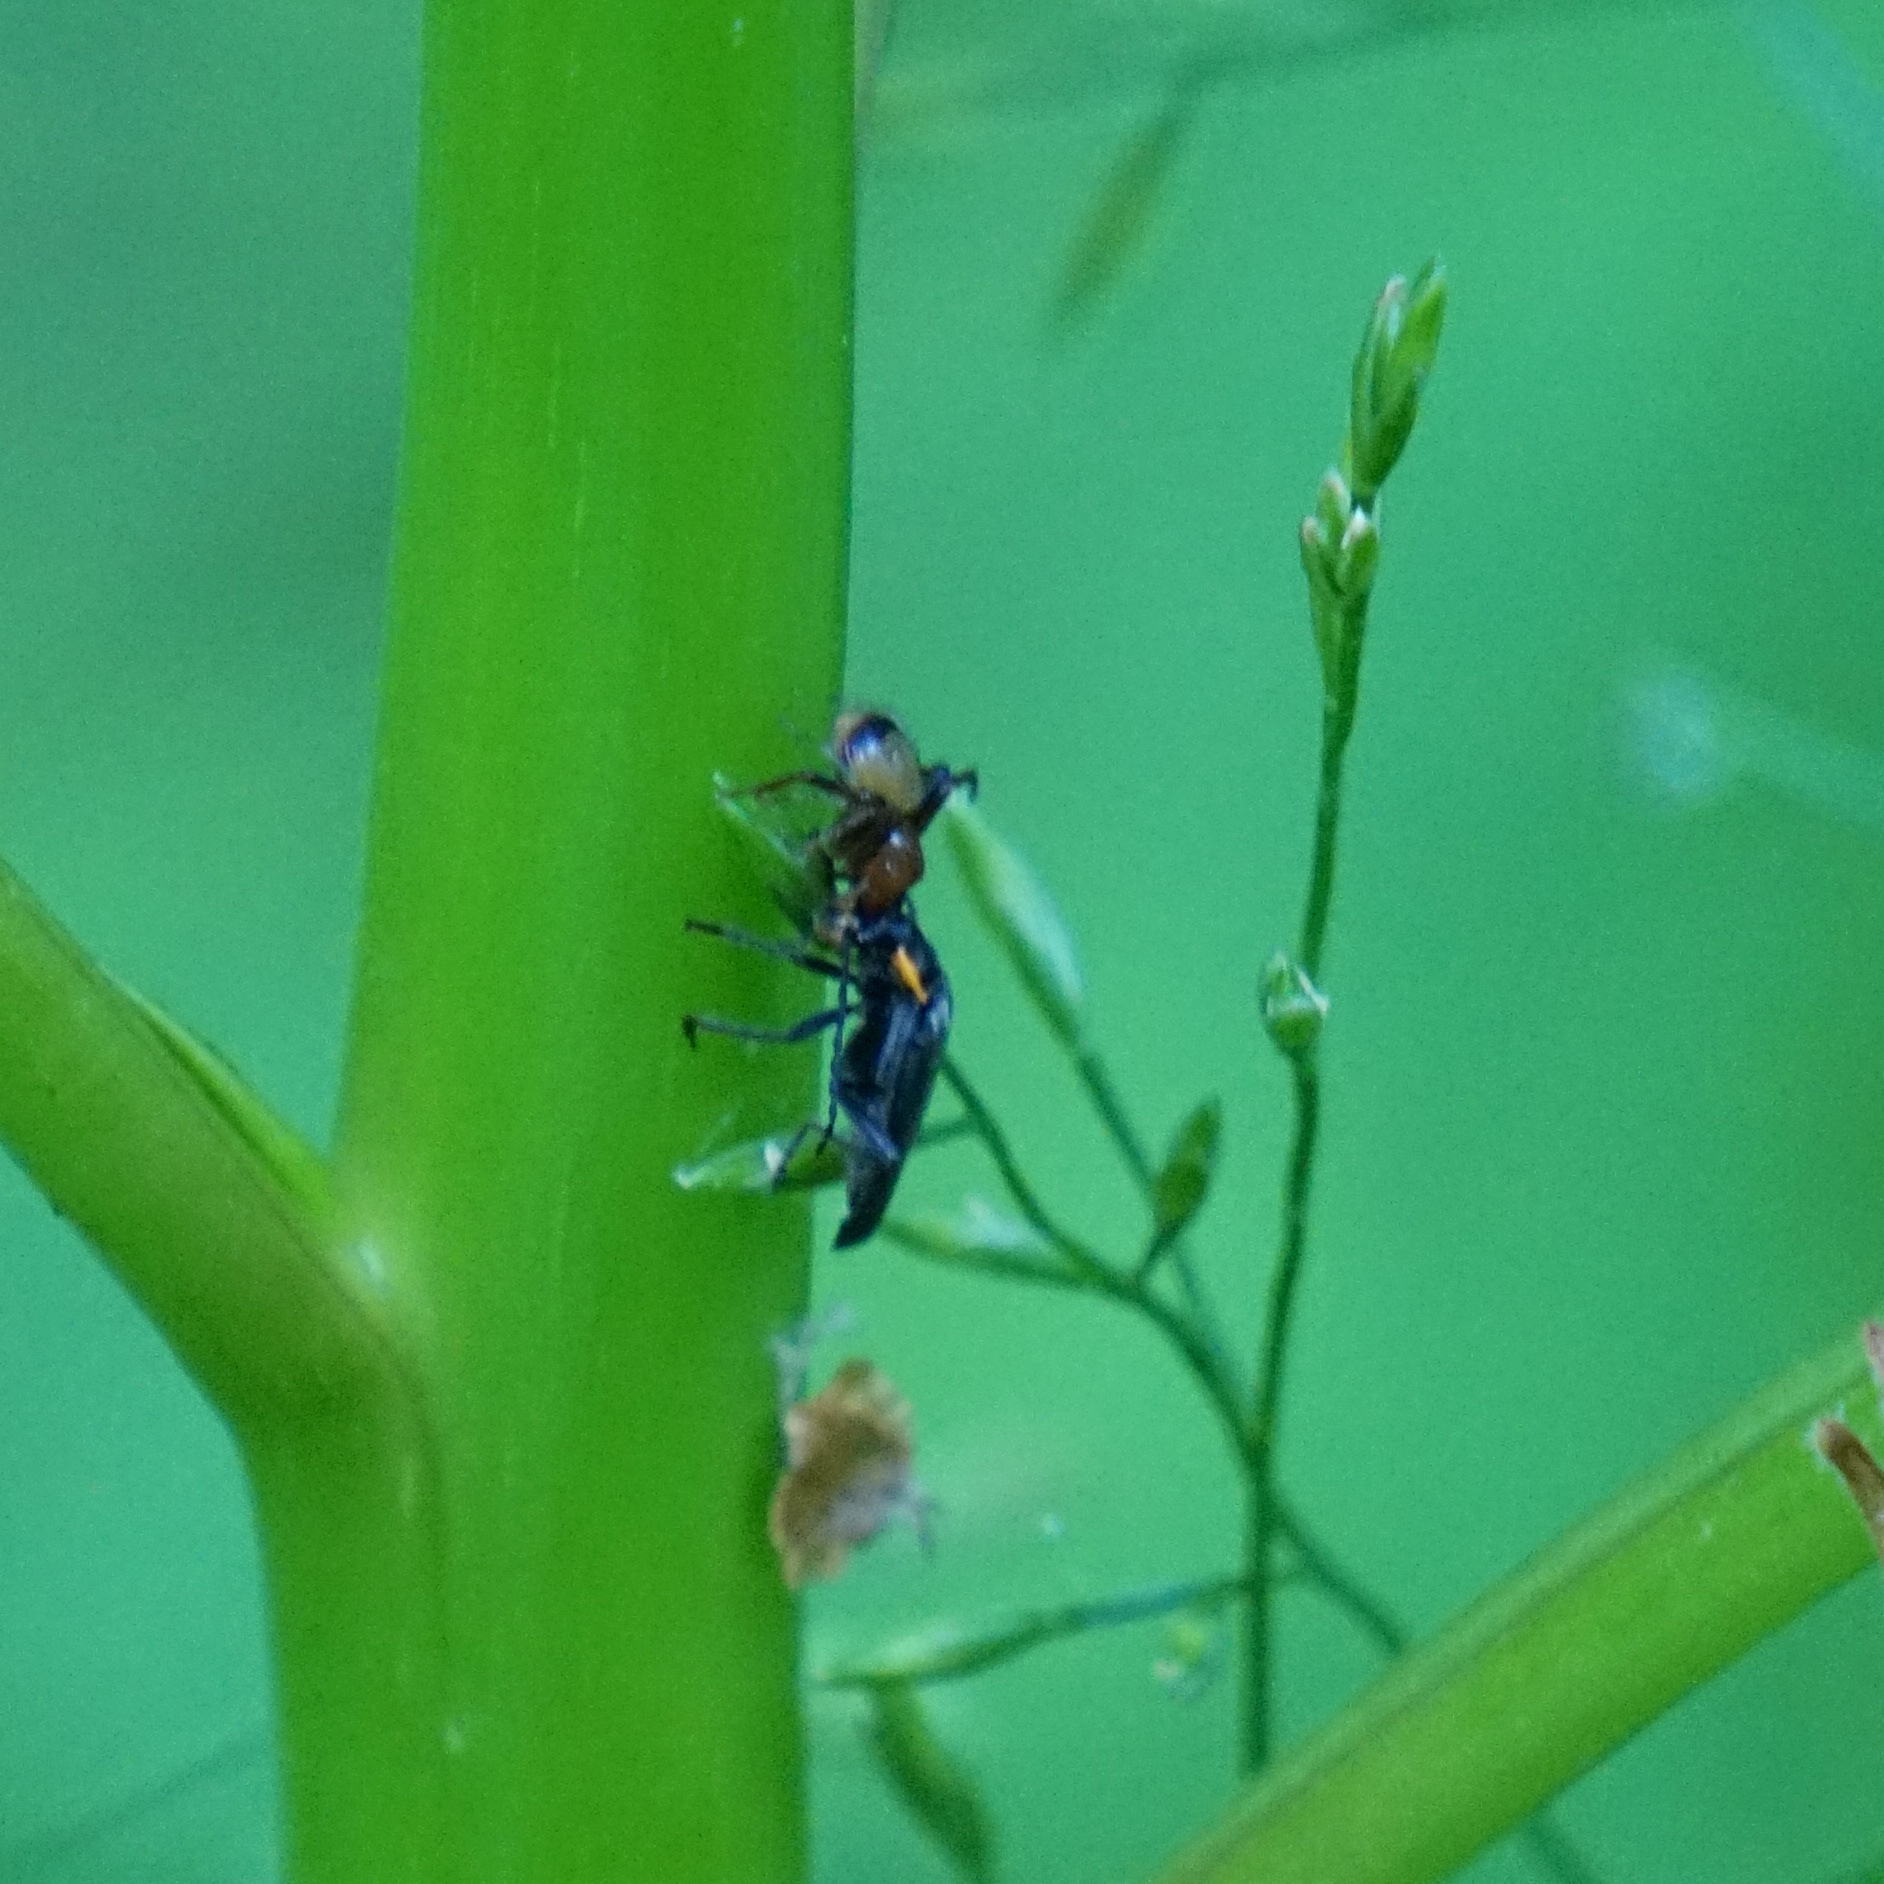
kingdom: Animalia
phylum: Arthropoda
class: Arachnida
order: Araneae
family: Thomisidae
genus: Synema
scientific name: Synema parvulum
